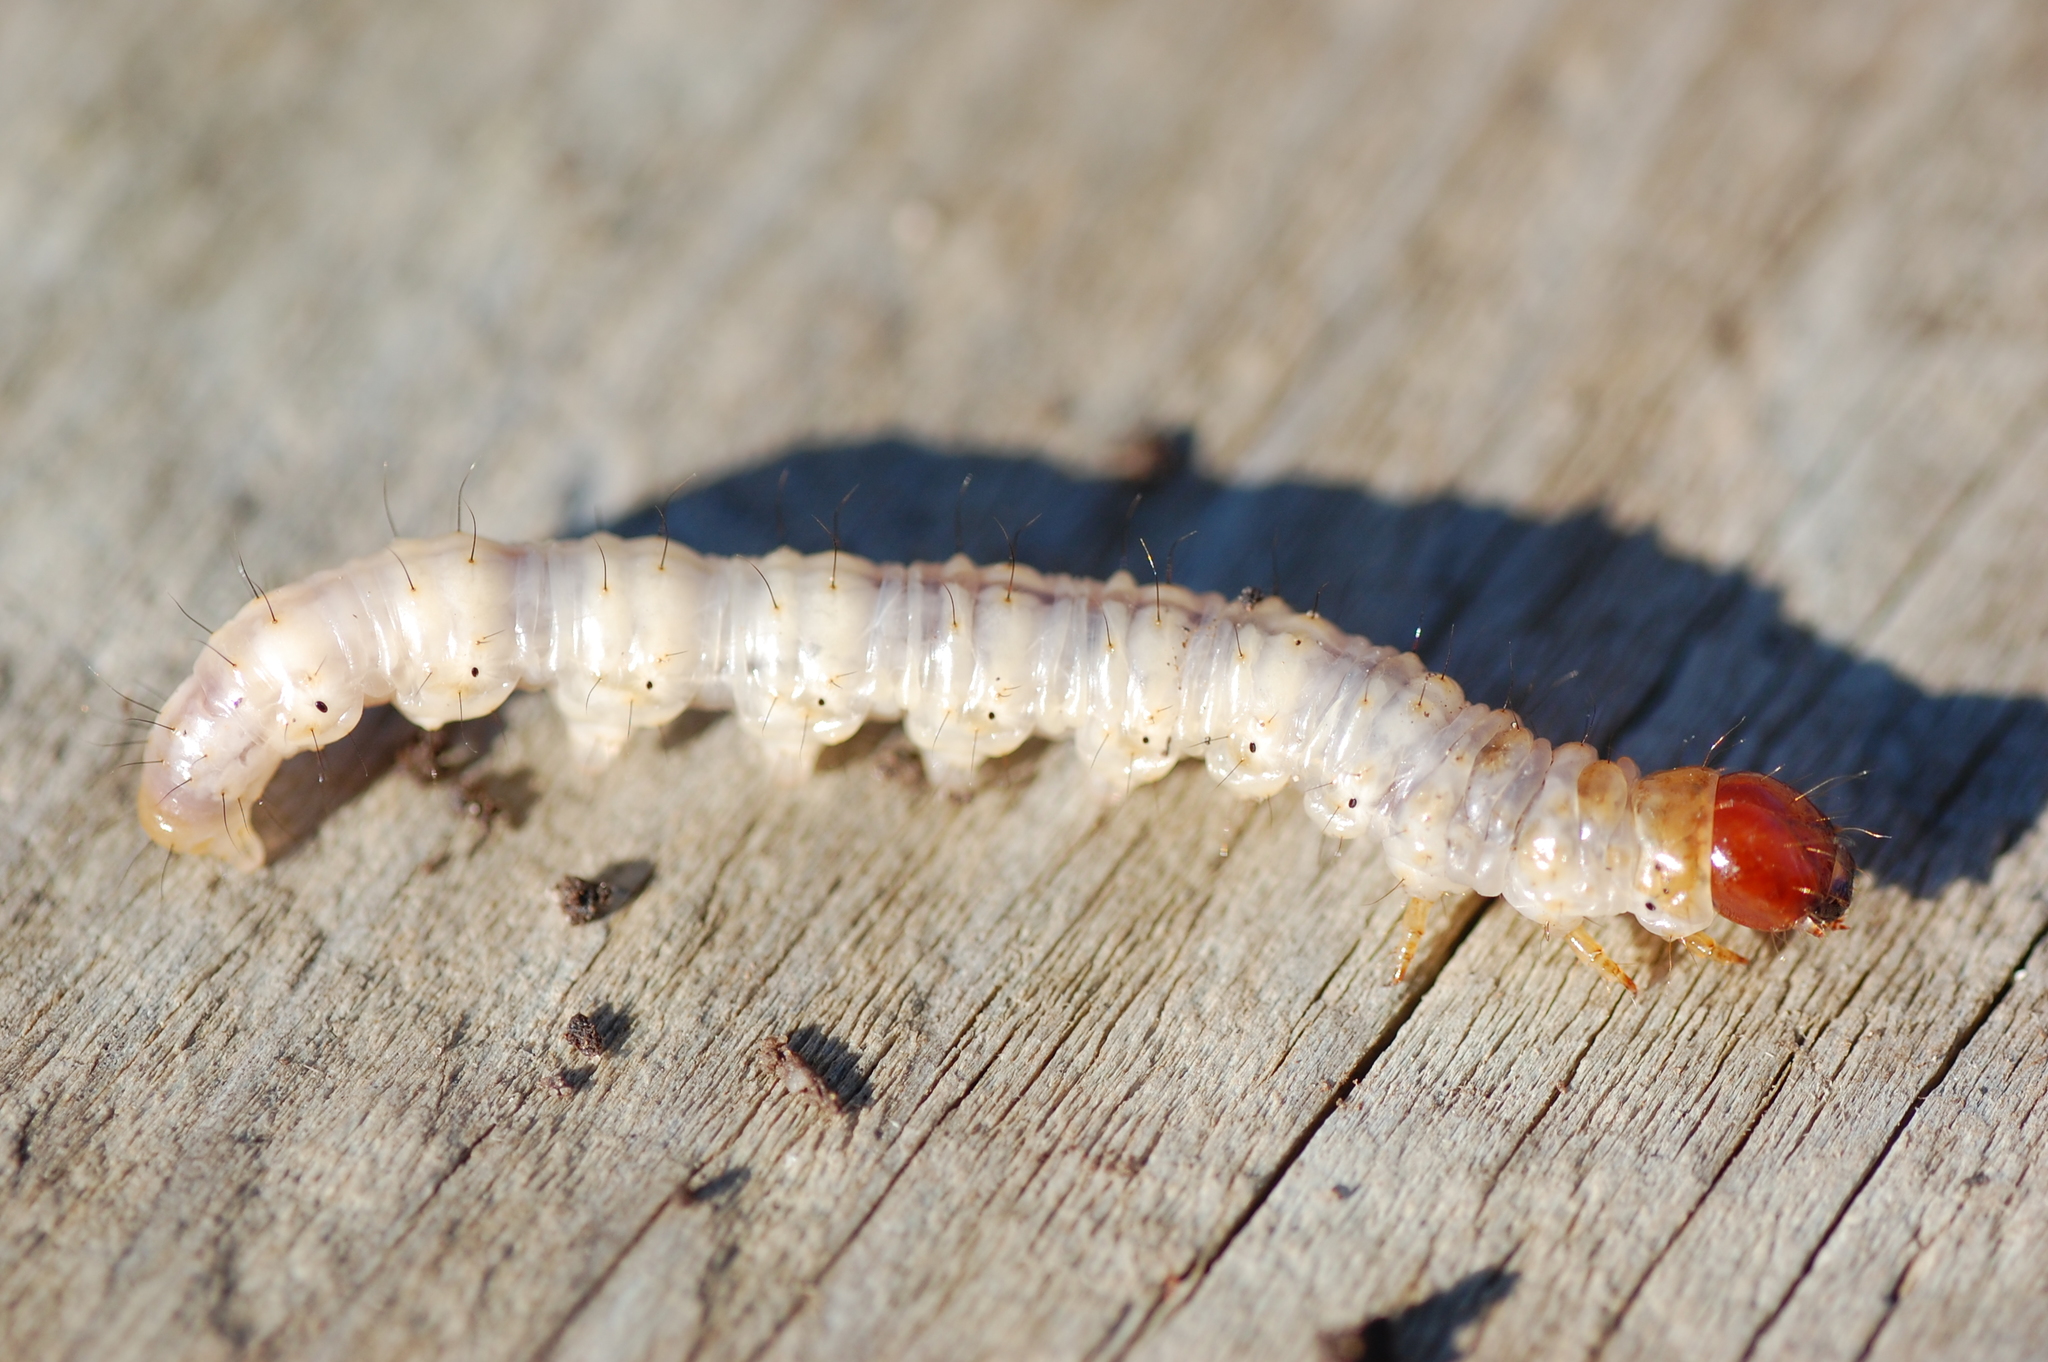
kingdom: Animalia
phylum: Arthropoda
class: Insecta
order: Lepidoptera
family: Hepialidae
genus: Korscheltellus
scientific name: Korscheltellus lupulina
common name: Common swift
